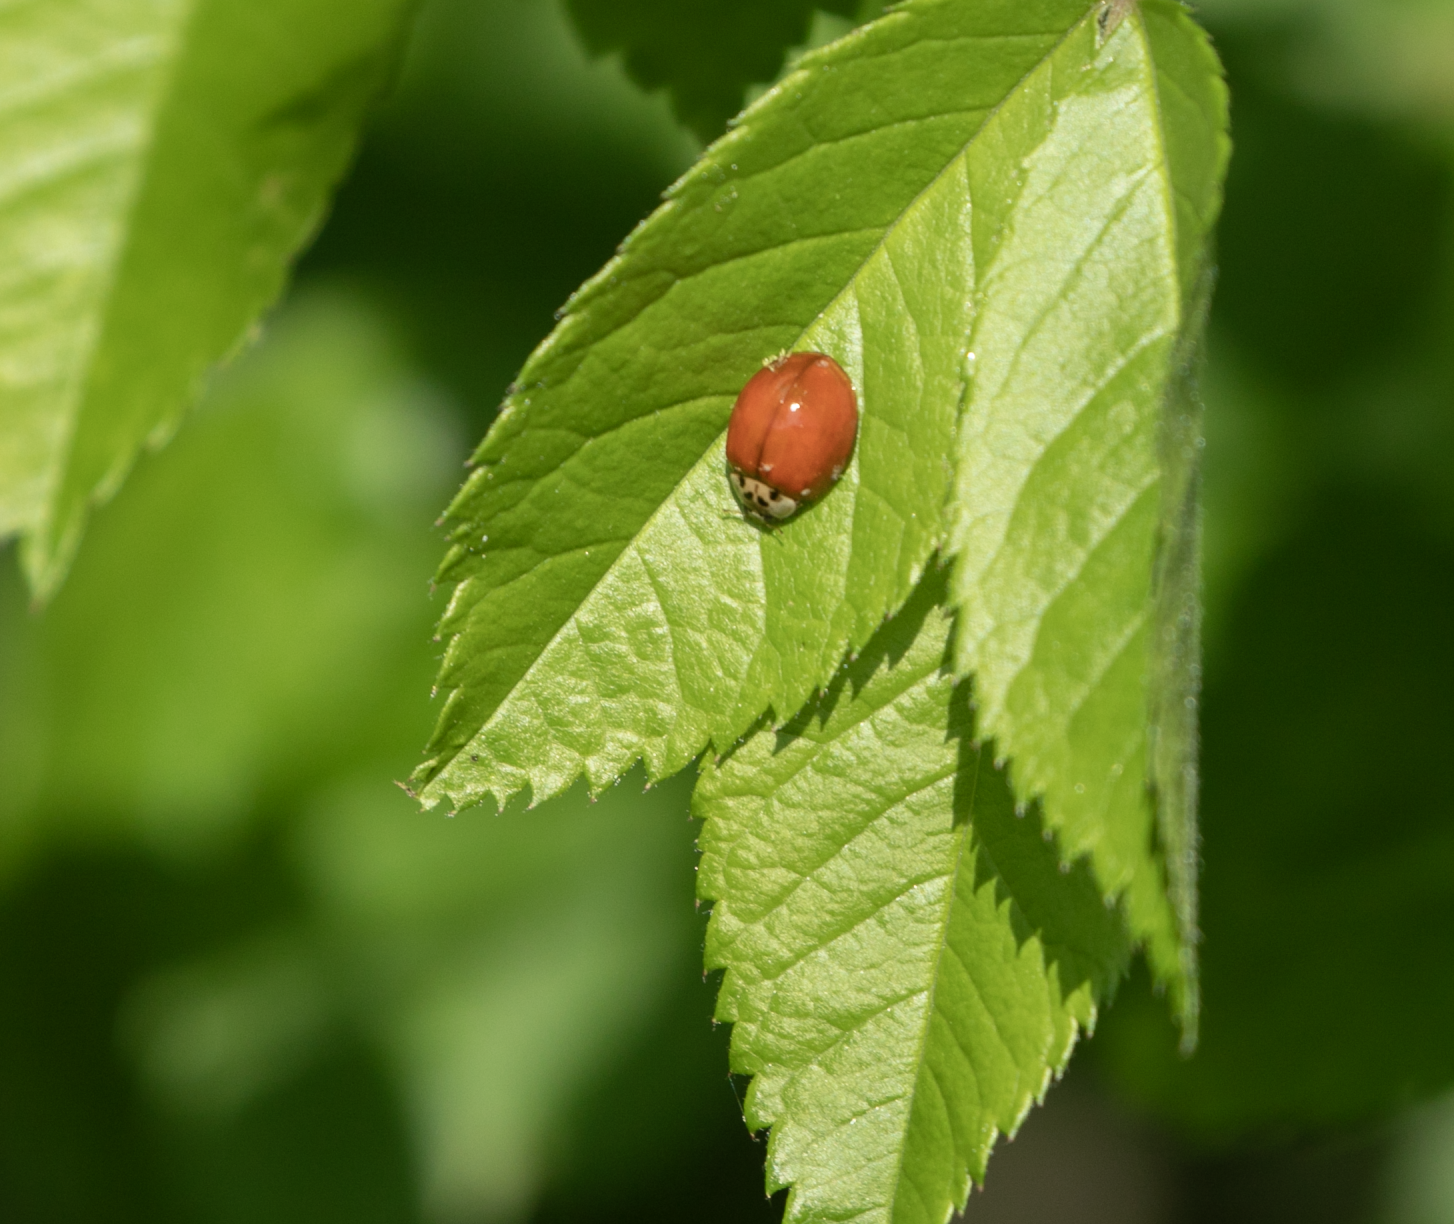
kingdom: Animalia
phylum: Arthropoda
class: Insecta
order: Coleoptera
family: Coccinellidae
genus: Harmonia
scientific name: Harmonia axyridis
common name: Harlequin ladybird
